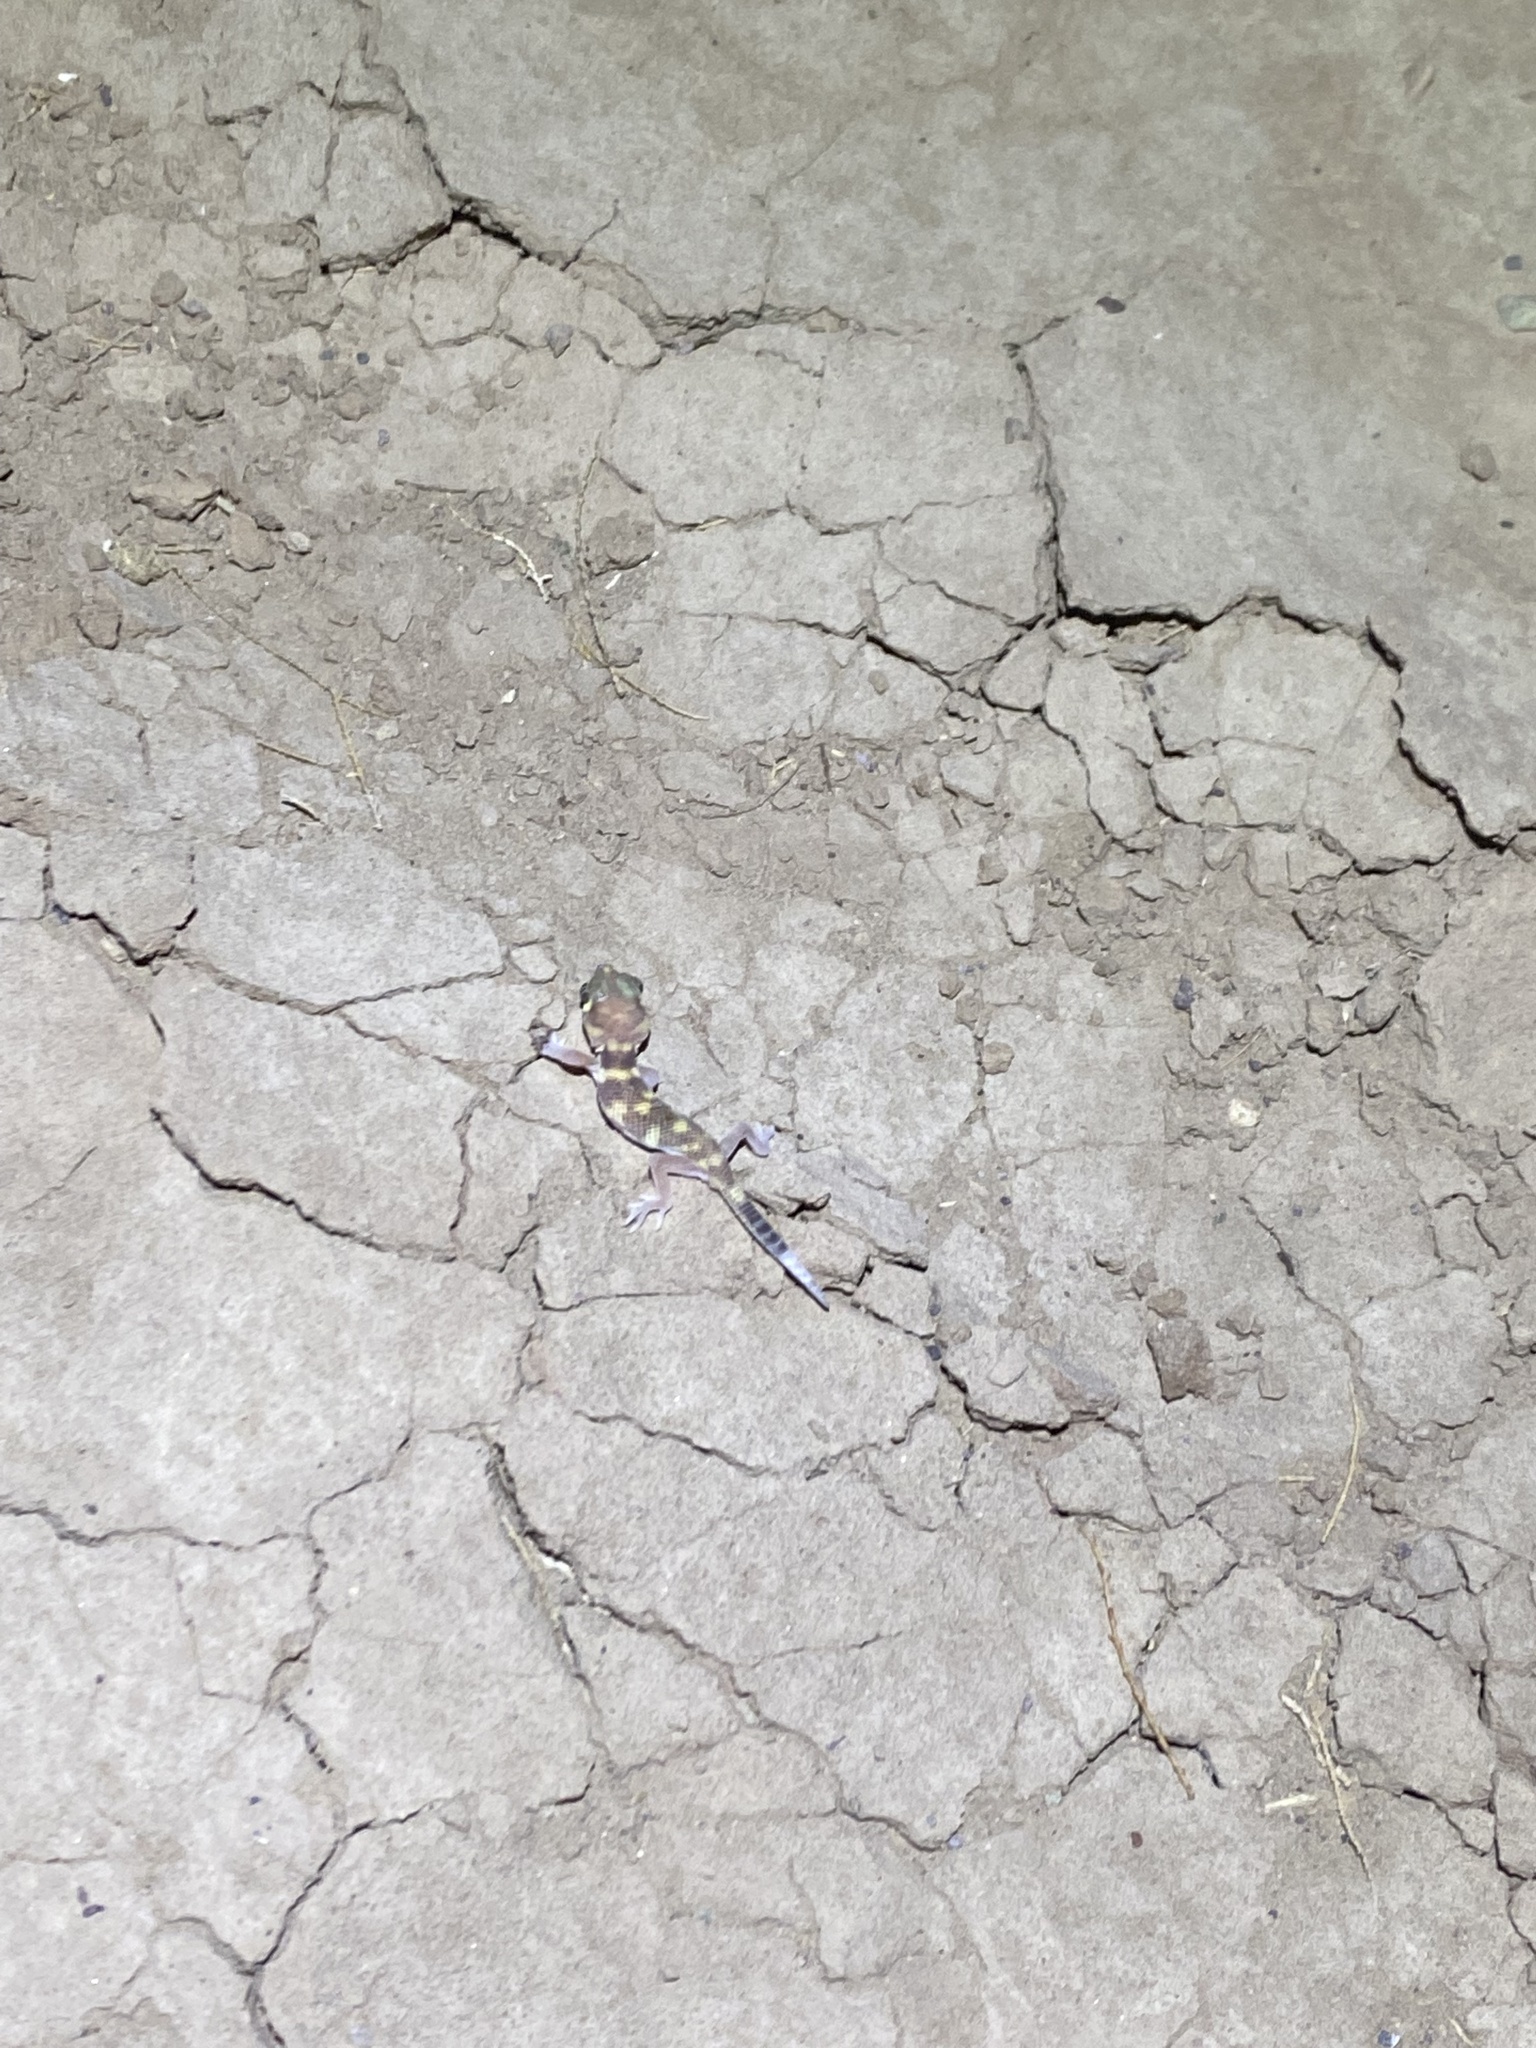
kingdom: Animalia
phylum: Chordata
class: Squamata
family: Sphaerodactylidae
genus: Teratoscincus
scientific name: Teratoscincus bedriagai
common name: Bedriaga's plate-tailed gecko
